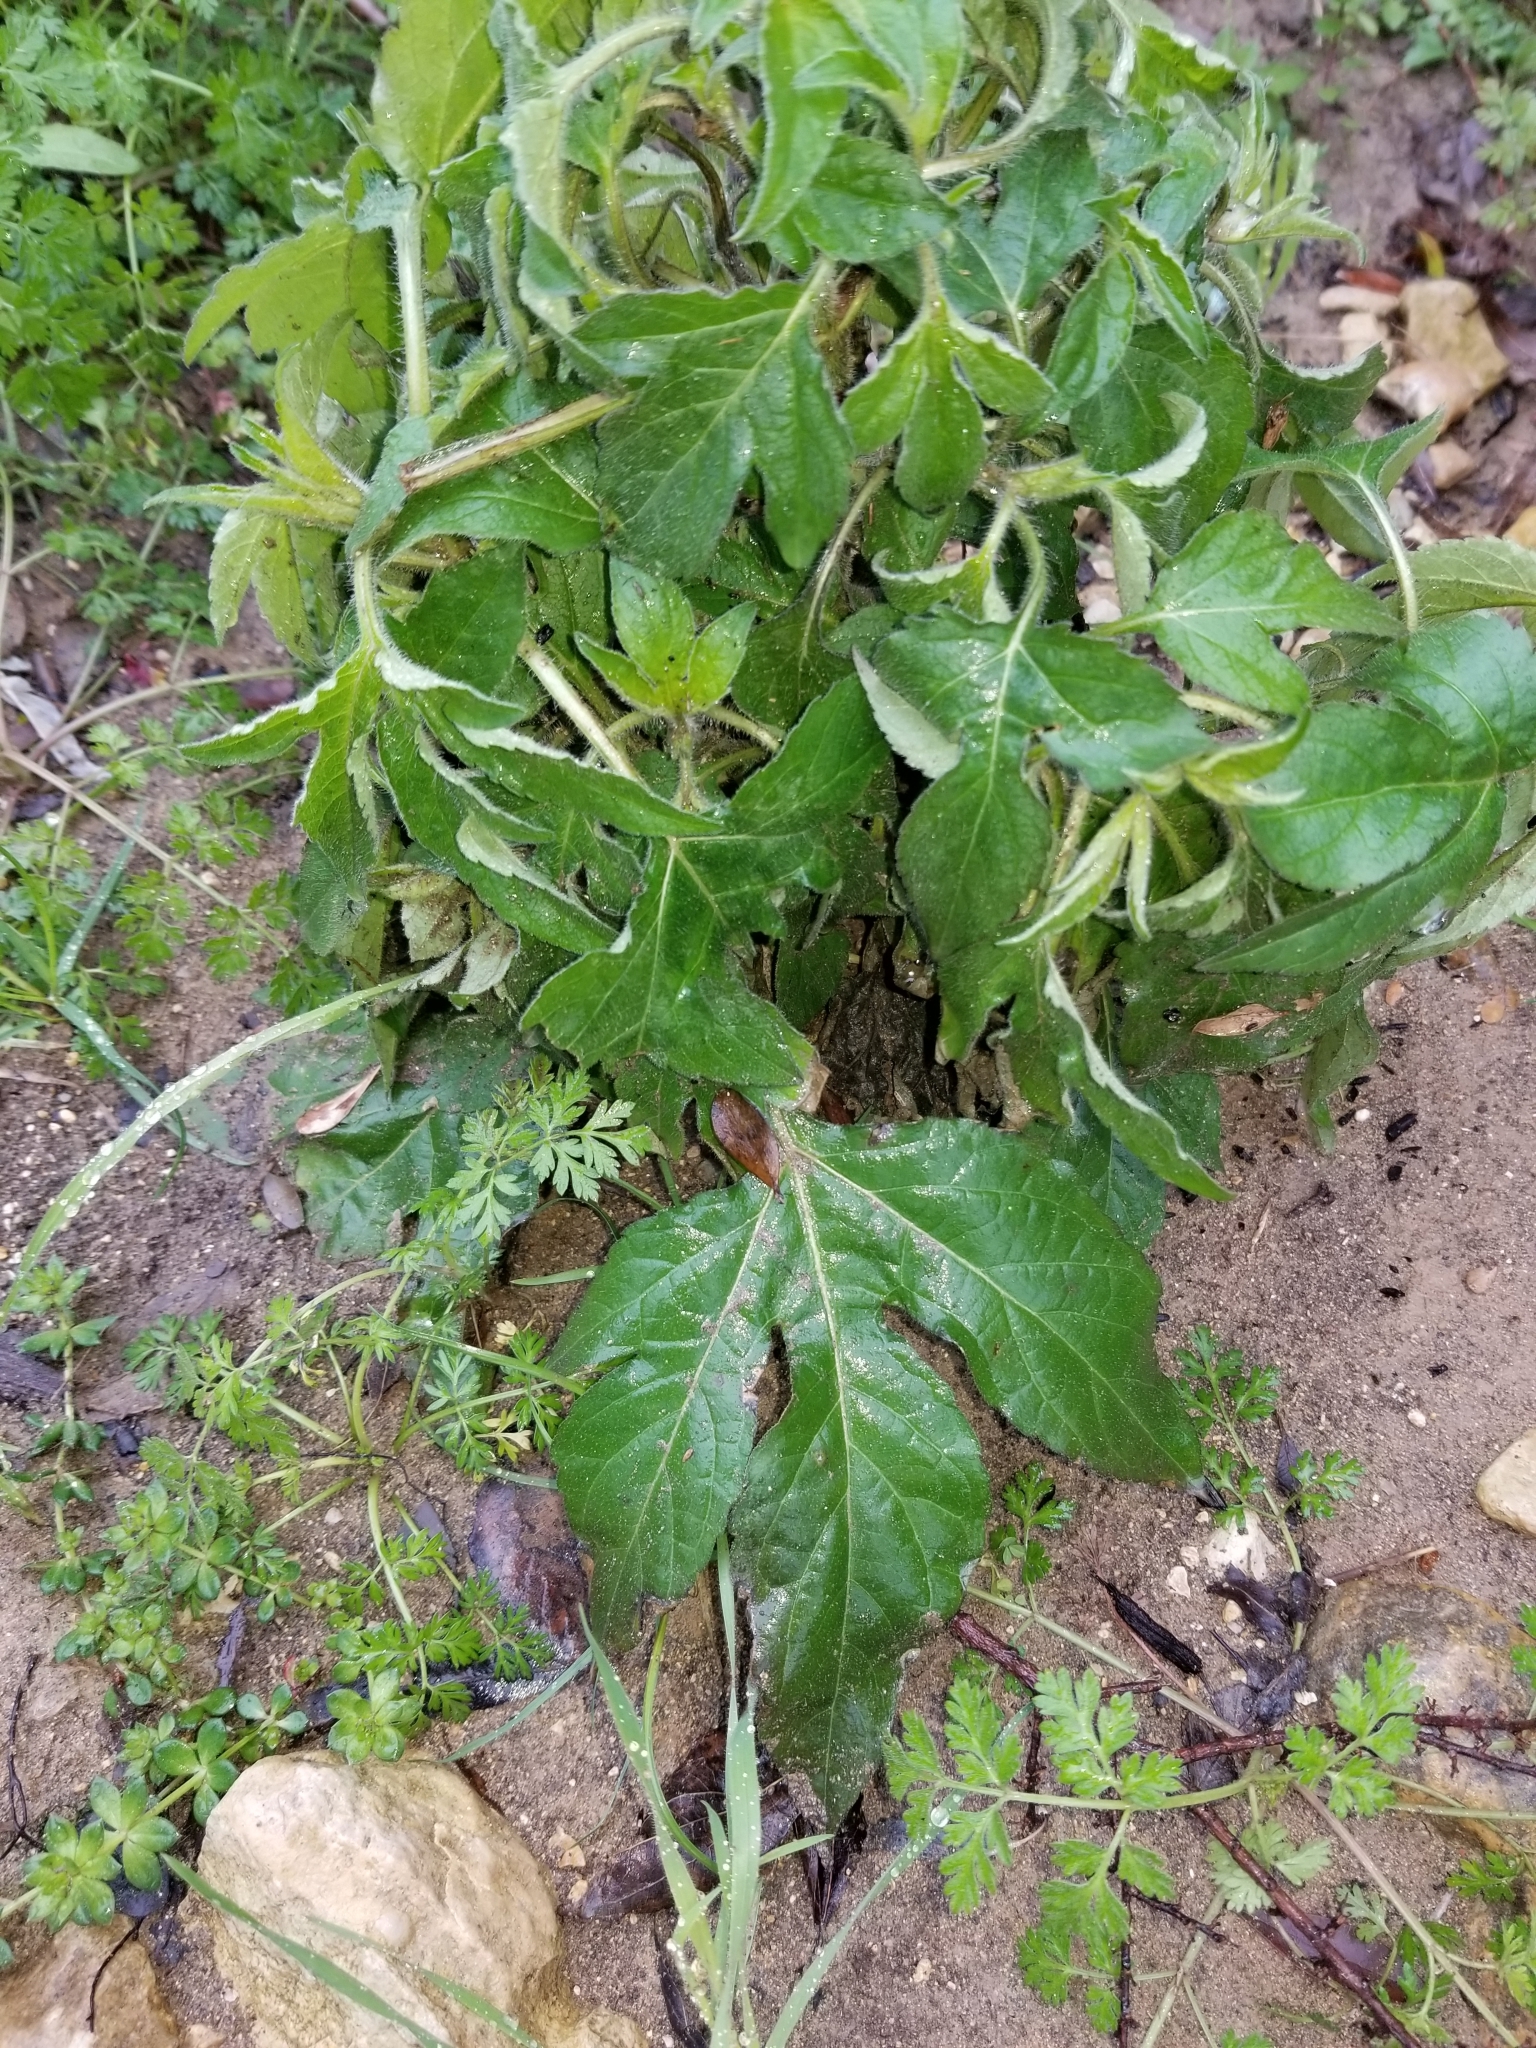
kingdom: Plantae
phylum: Tracheophyta
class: Magnoliopsida
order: Asterales
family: Asteraceae
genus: Ambrosia
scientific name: Ambrosia trifida
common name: Giant ragweed
